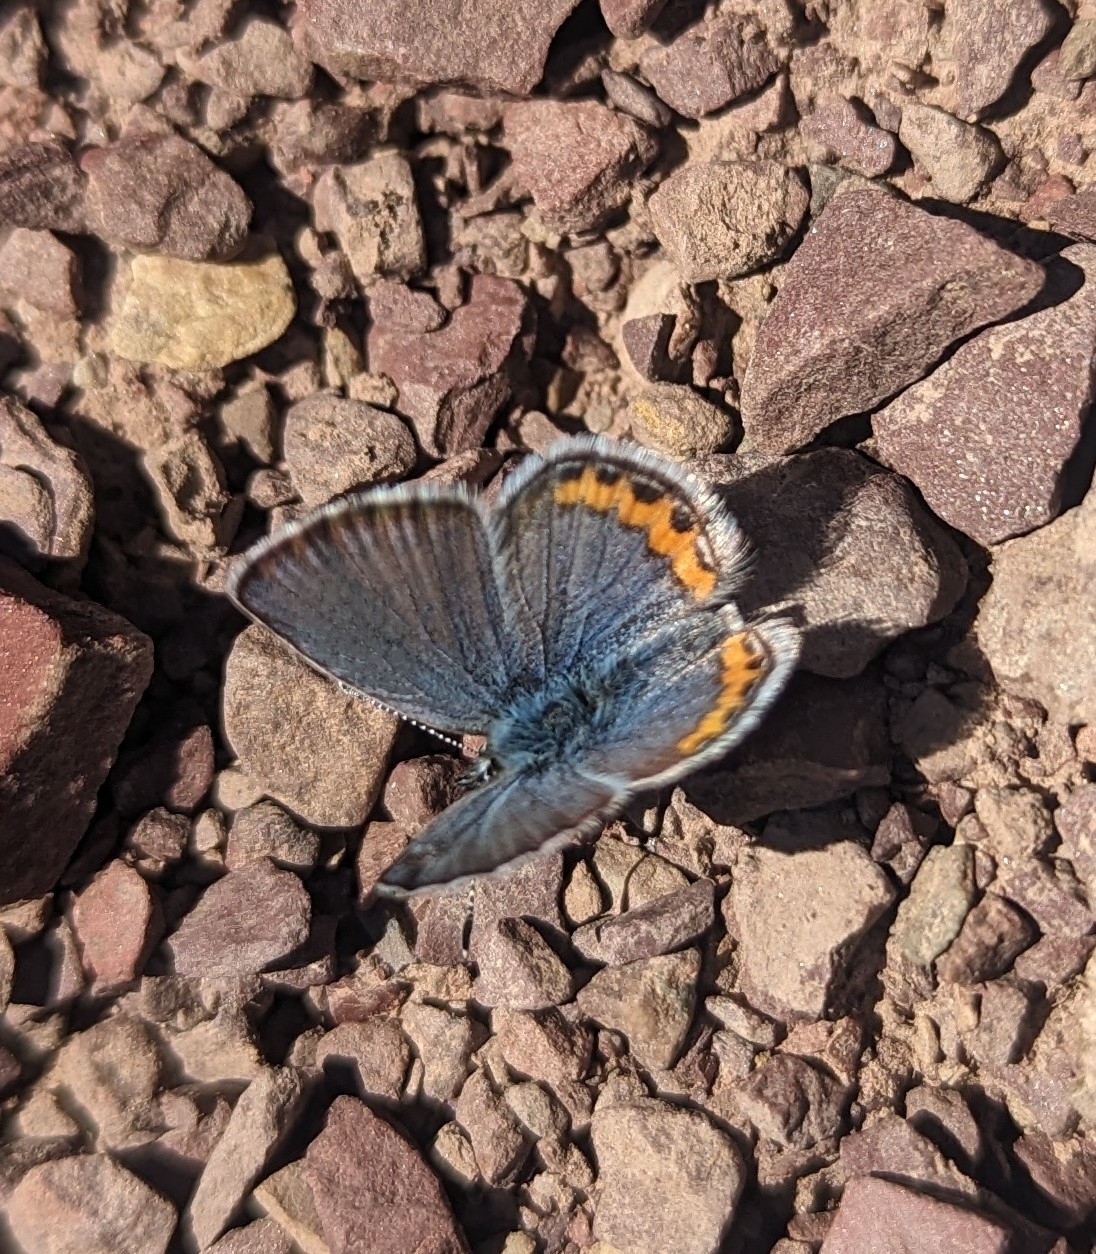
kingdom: Animalia
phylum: Arthropoda
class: Insecta
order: Lepidoptera
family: Lycaenidae
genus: Icaricia
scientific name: Icaricia lupini
